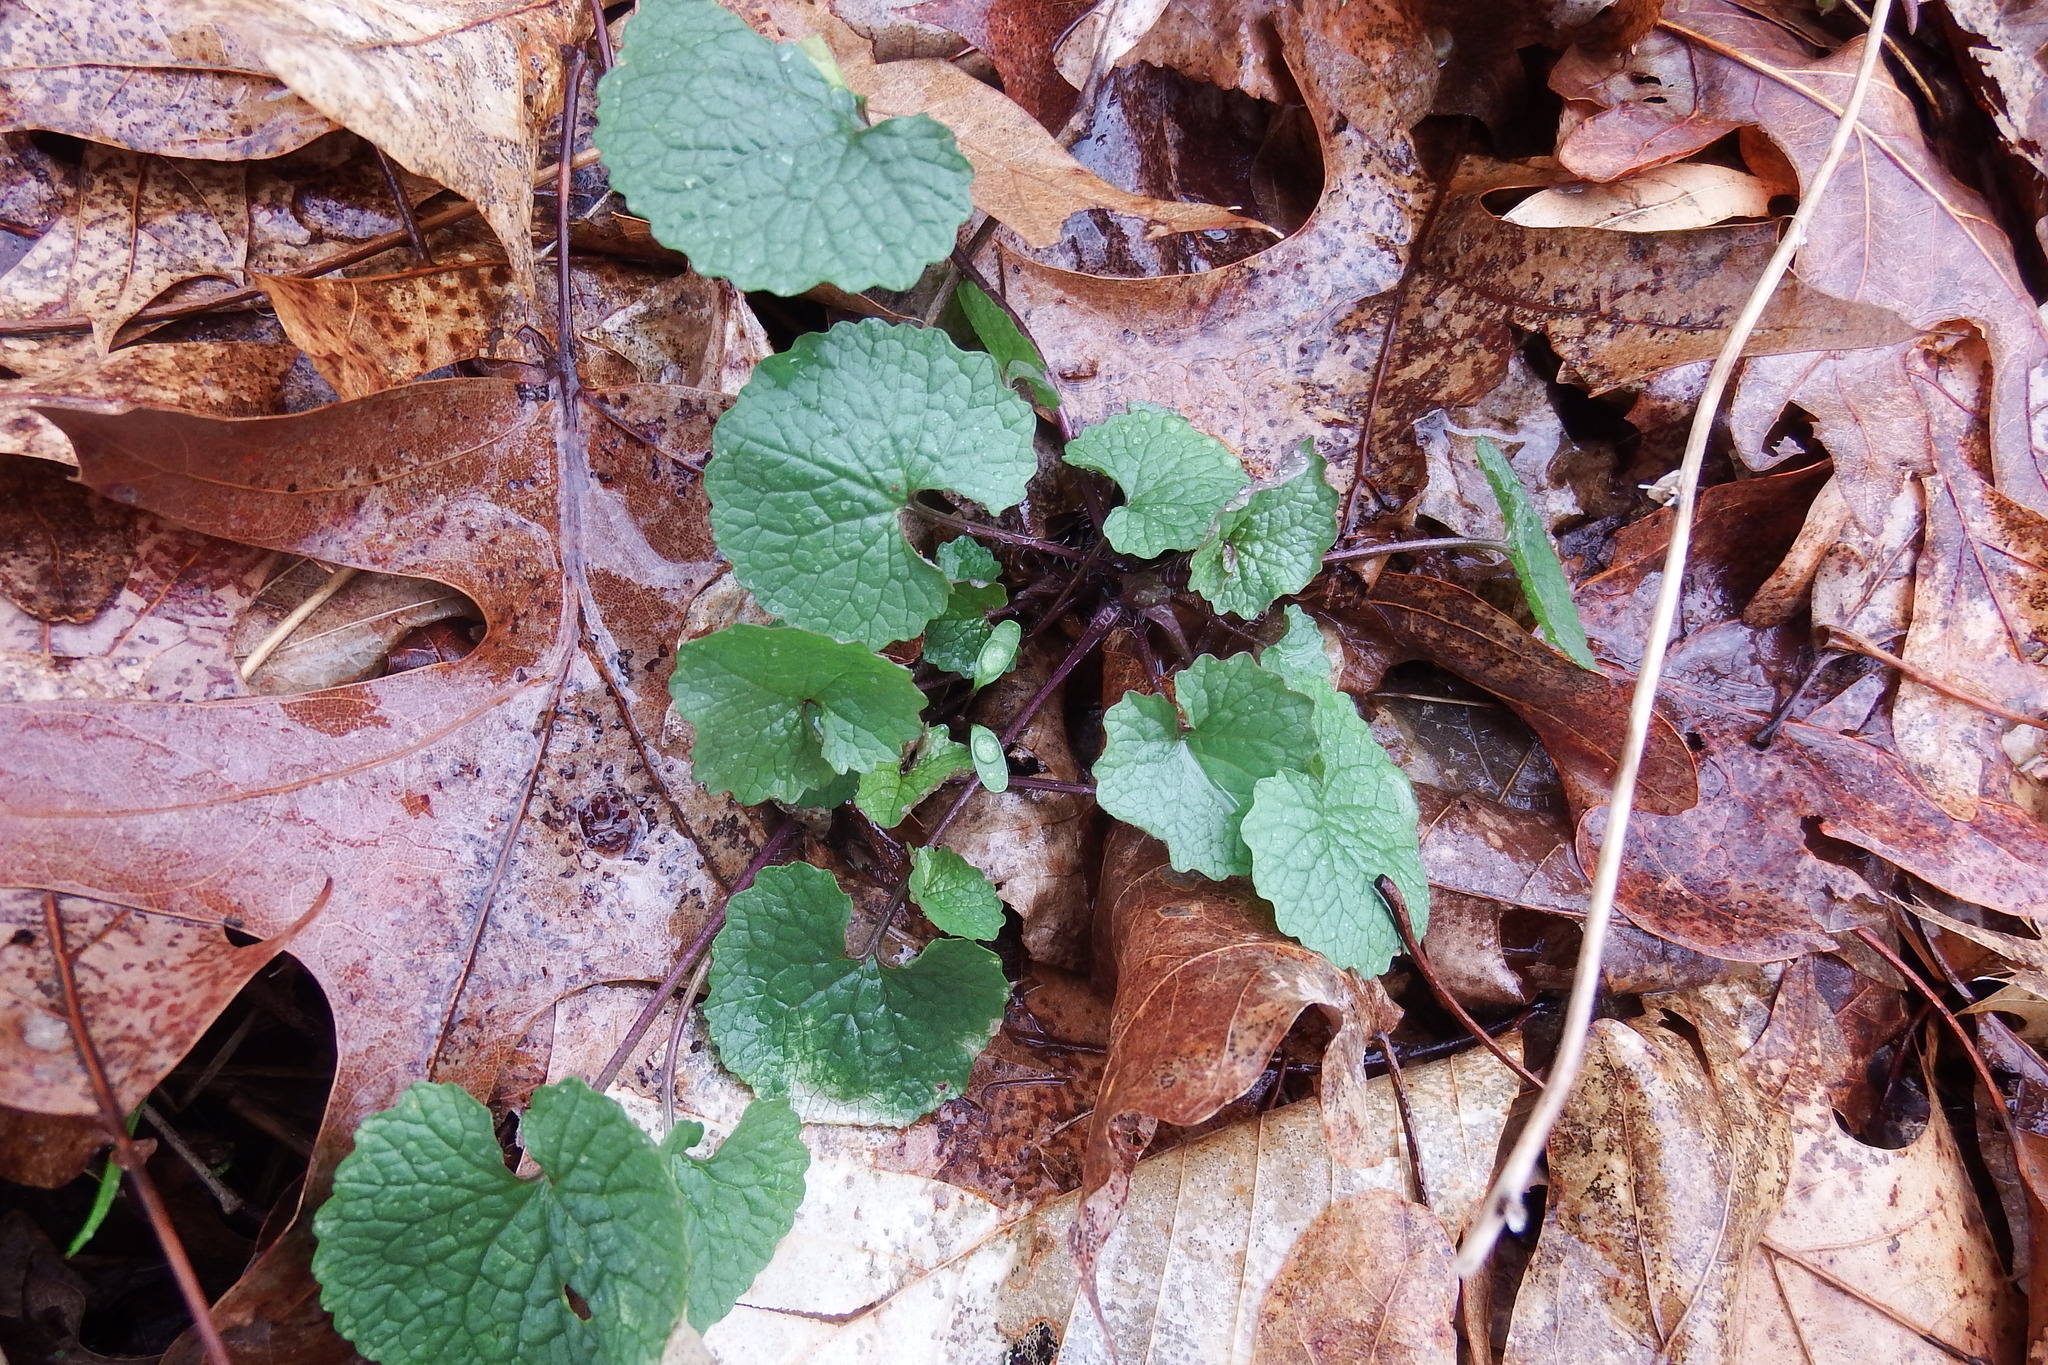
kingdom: Plantae
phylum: Tracheophyta
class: Magnoliopsida
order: Brassicales
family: Brassicaceae
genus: Alliaria
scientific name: Alliaria petiolata
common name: Garlic mustard
